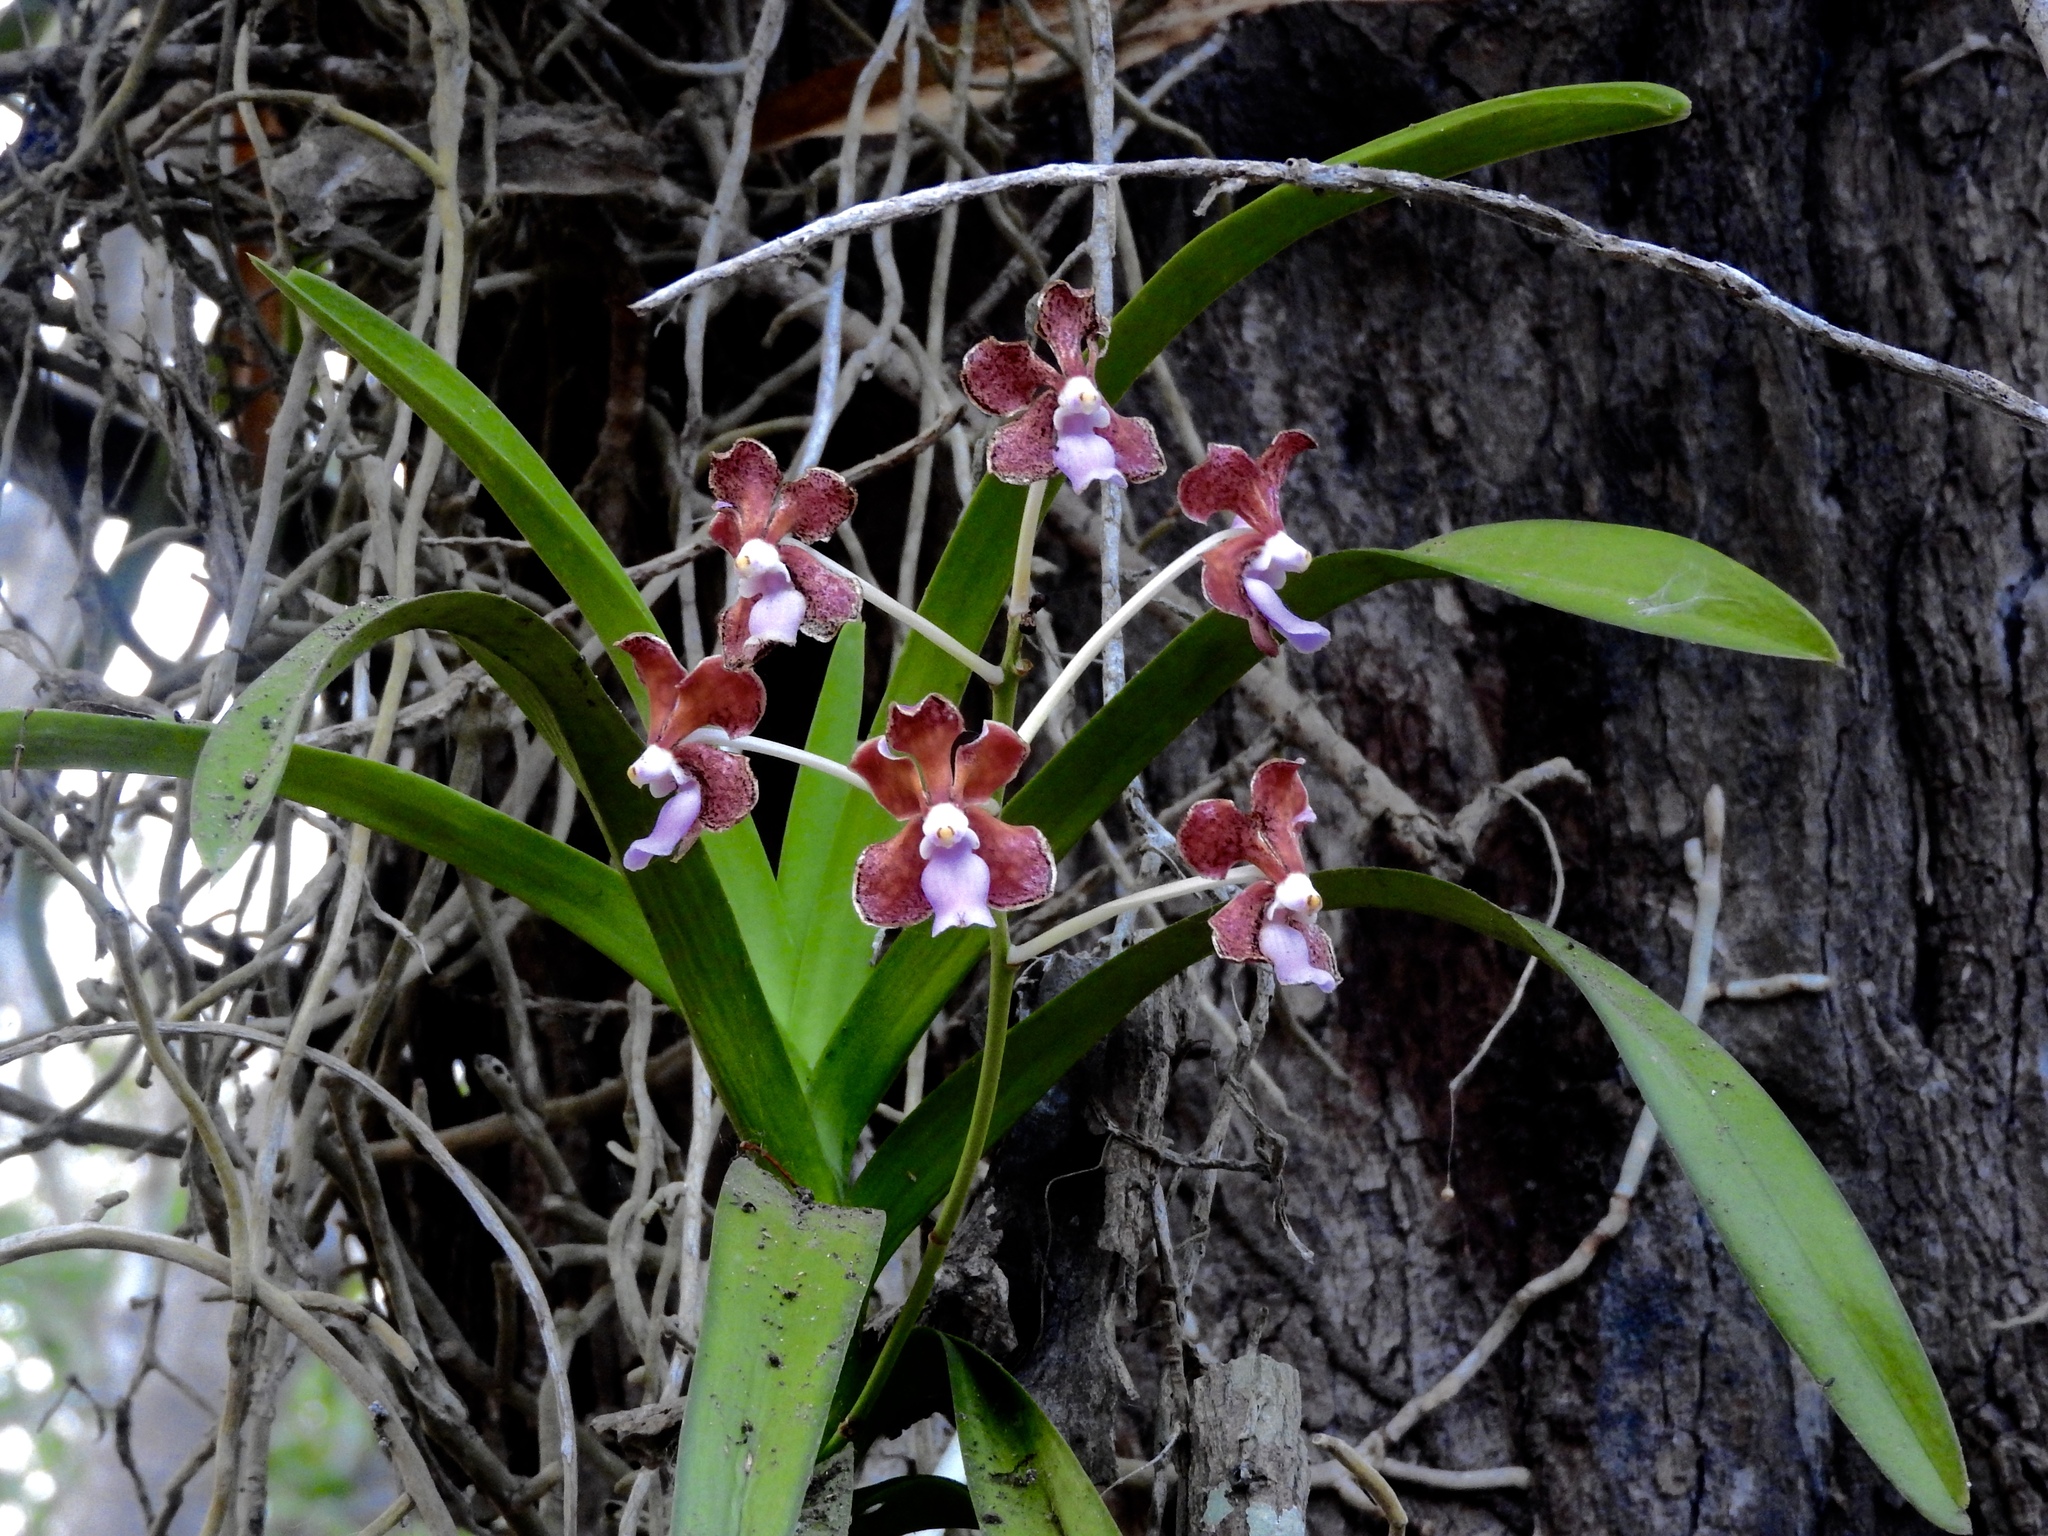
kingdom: Plantae
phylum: Tracheophyta
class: Liliopsida
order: Asparagales
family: Orchidaceae
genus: Vanda
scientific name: Vanda perplexa
